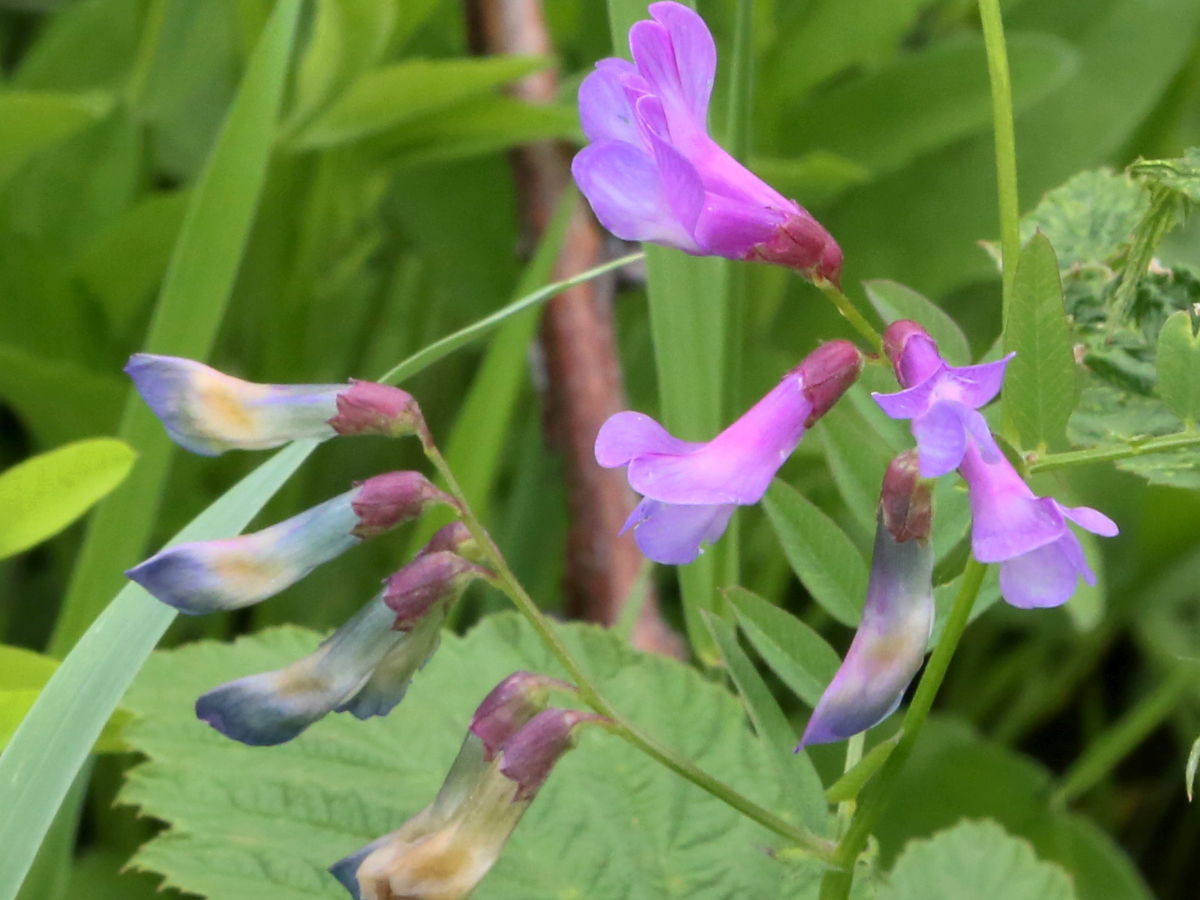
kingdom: Plantae
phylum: Tracheophyta
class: Magnoliopsida
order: Fabales
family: Fabaceae
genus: Vicia
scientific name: Vicia americana
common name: American vetch
